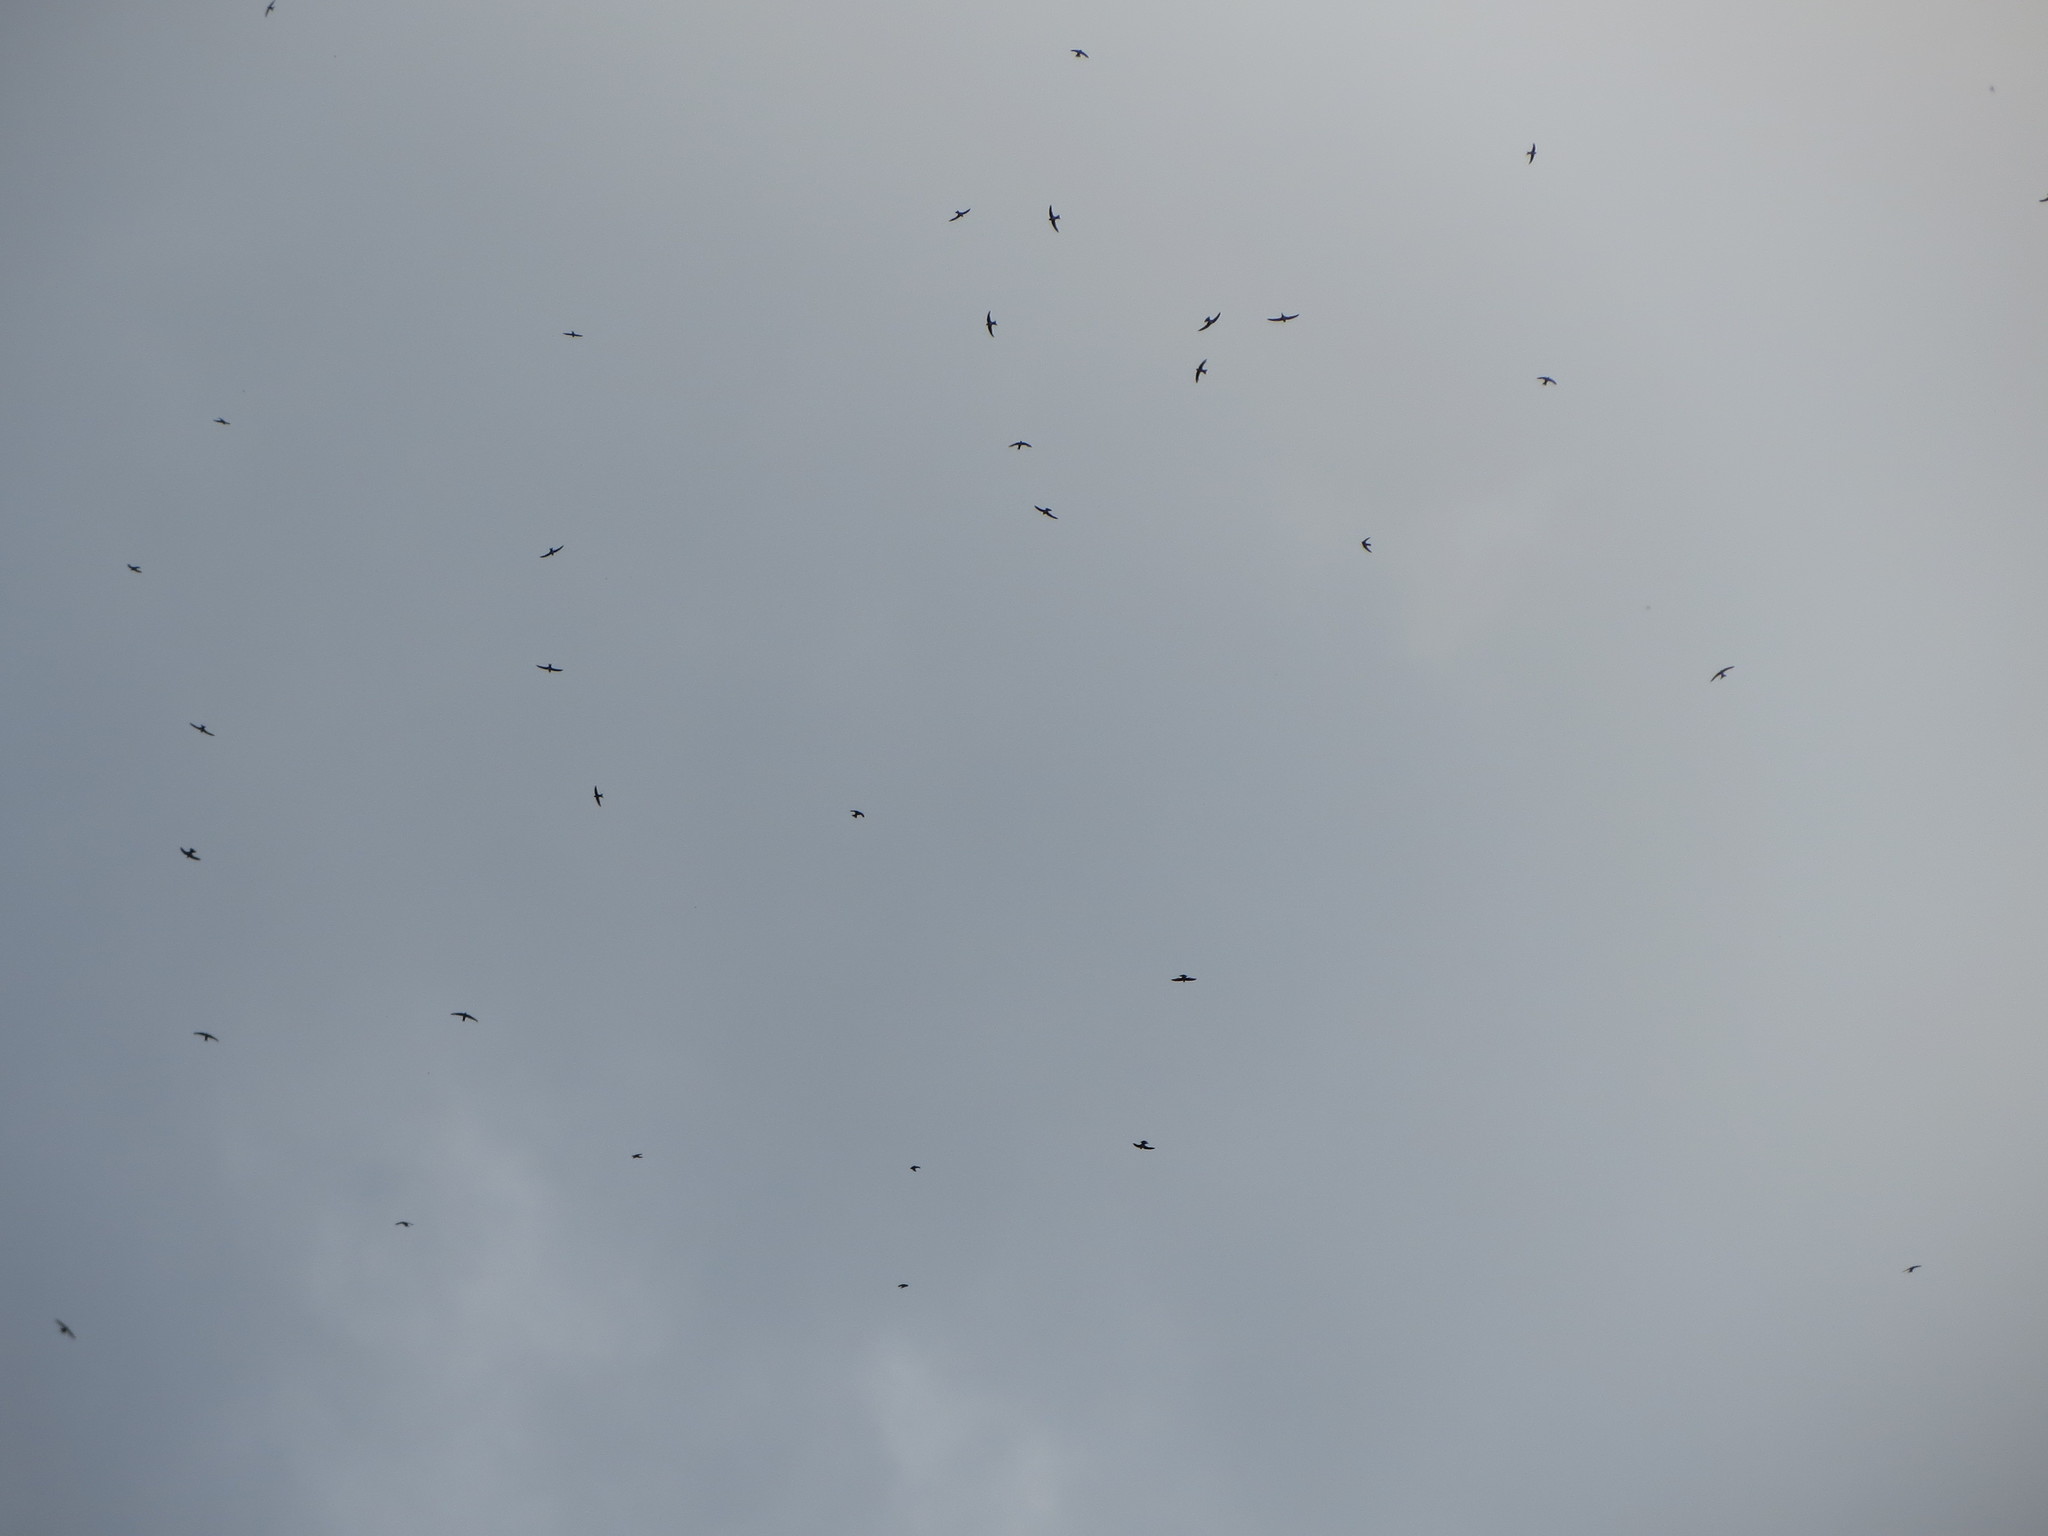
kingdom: Animalia
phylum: Chordata
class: Aves
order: Apodiformes
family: Apodidae
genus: Apus
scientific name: Apus apus
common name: Common swift
